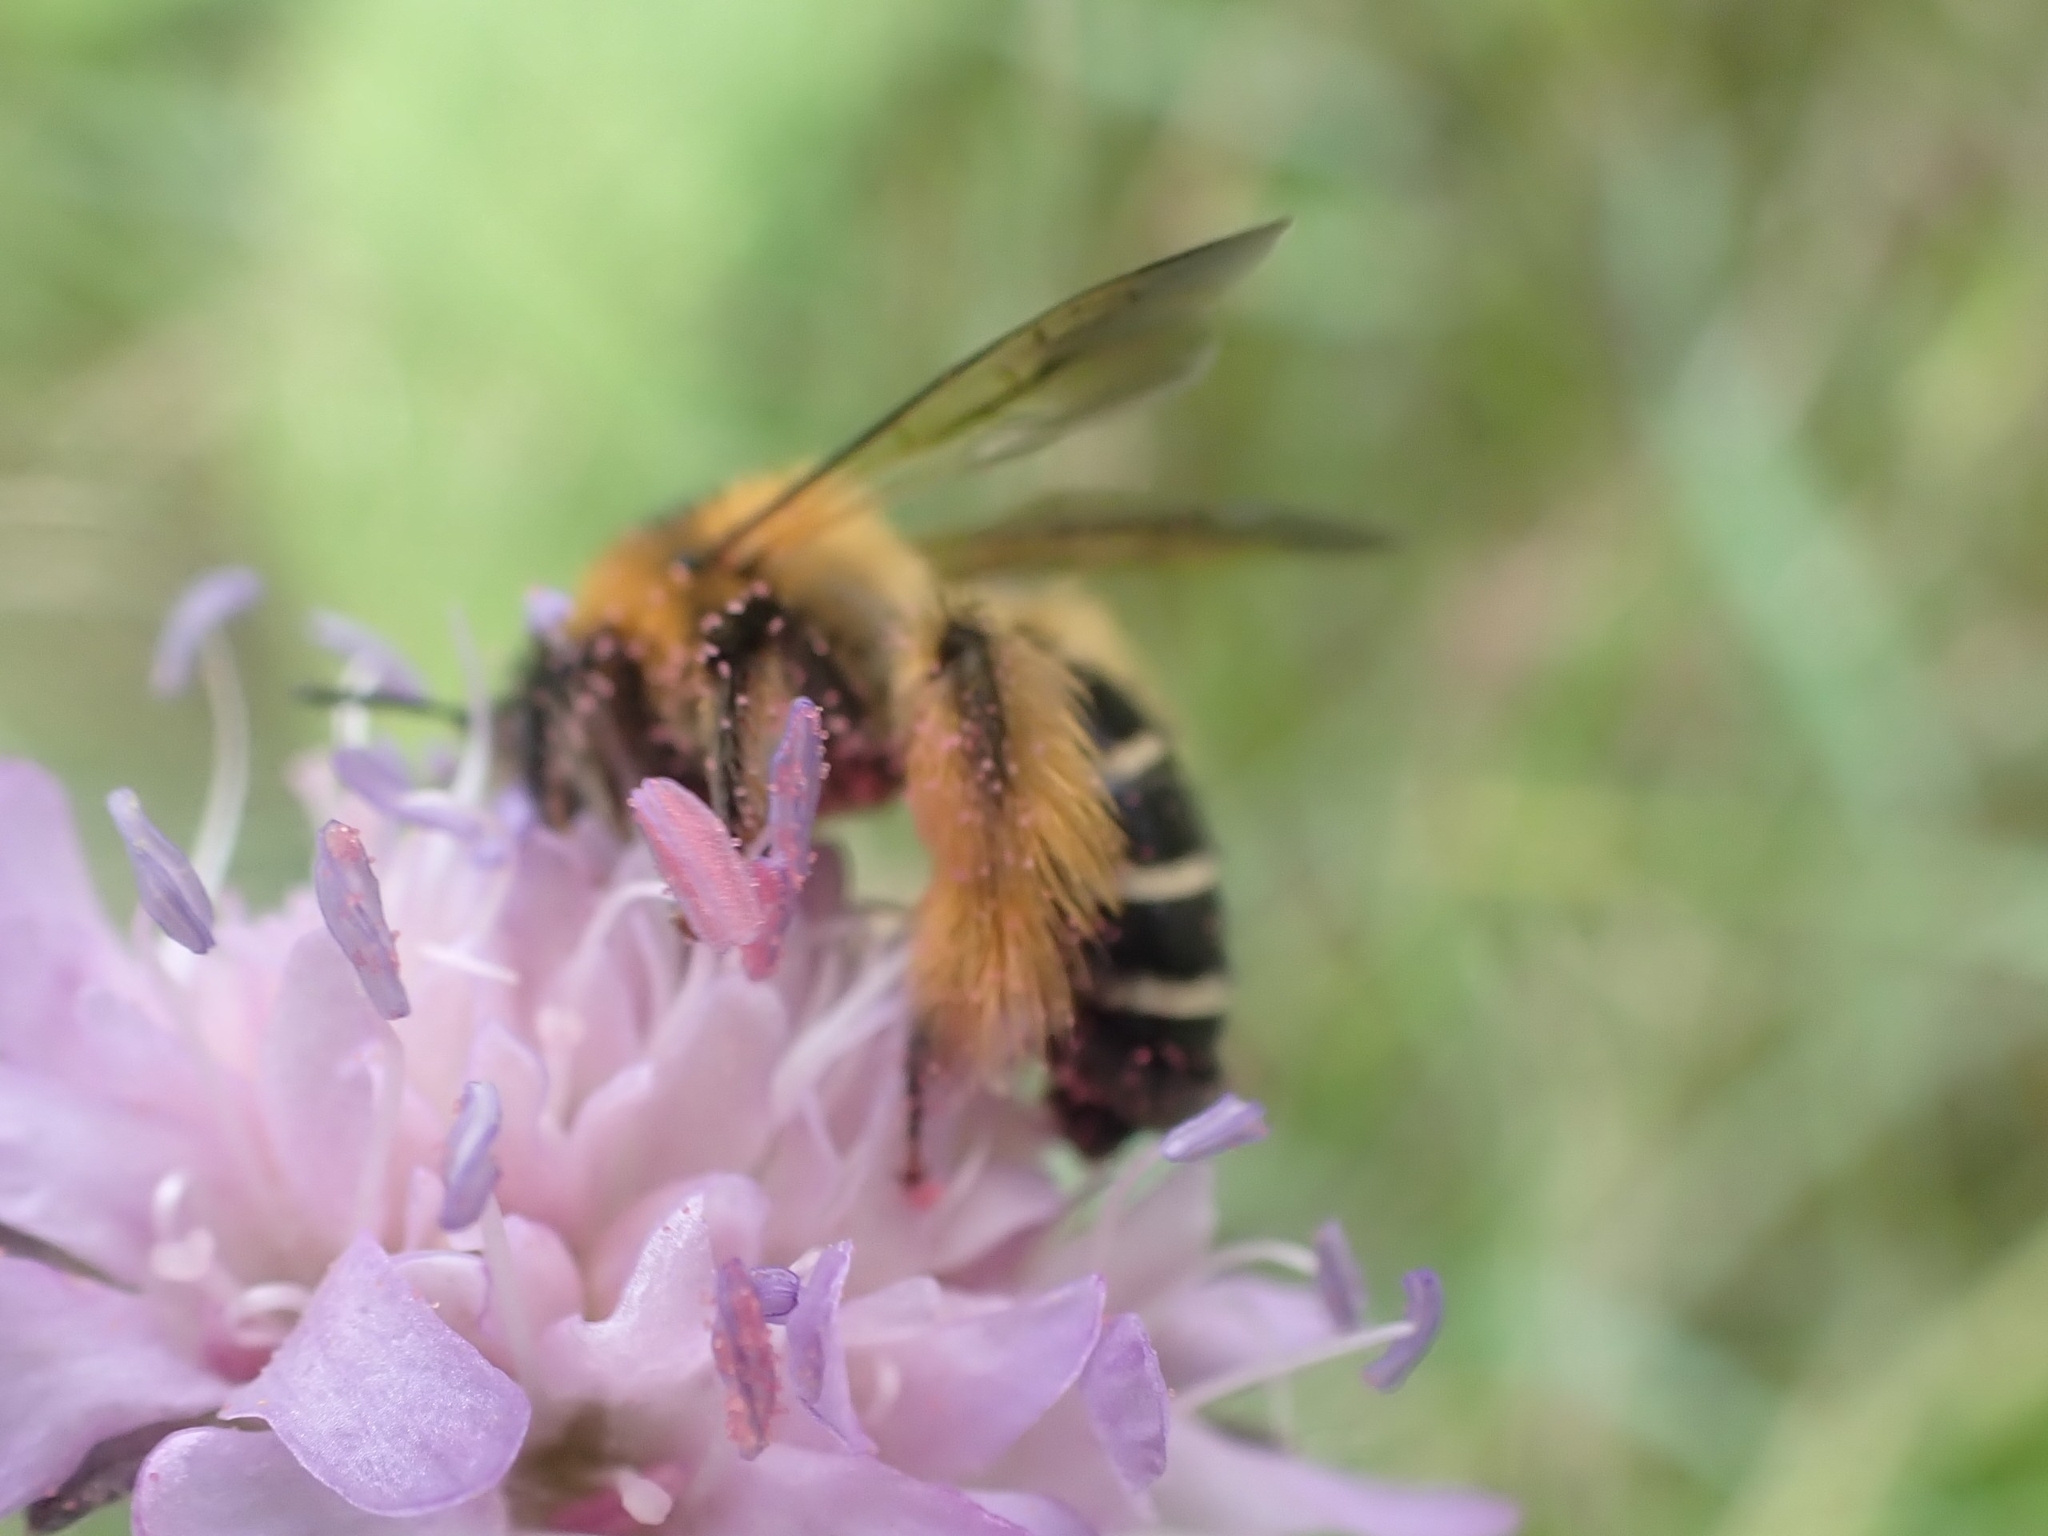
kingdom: Animalia
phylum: Arthropoda
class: Insecta
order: Hymenoptera
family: Melittidae
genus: Dasypoda
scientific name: Dasypoda hirtipes
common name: Pantaloon bee
